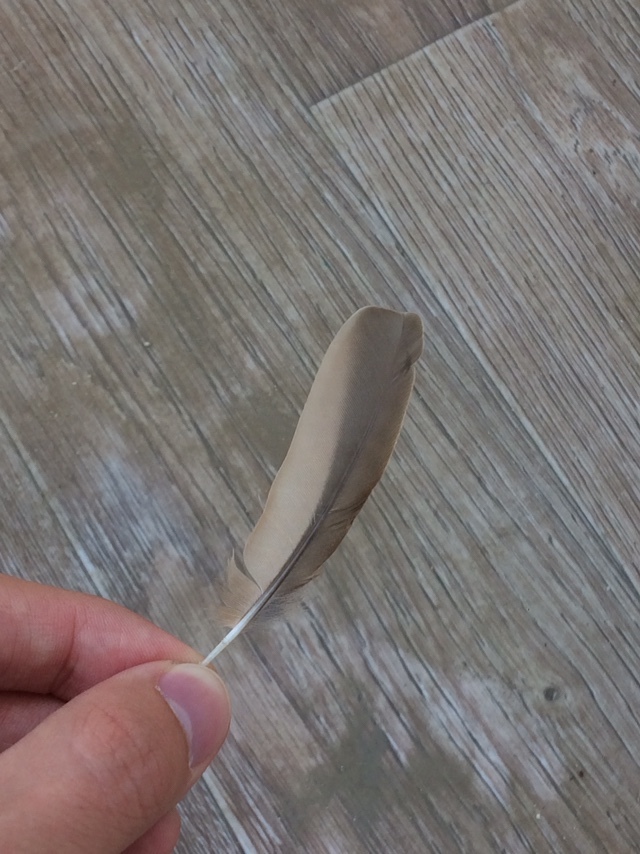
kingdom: Animalia
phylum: Chordata
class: Aves
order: Passeriformes
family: Alaudidae
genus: Galerida
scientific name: Galerida cristata
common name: Crested lark
